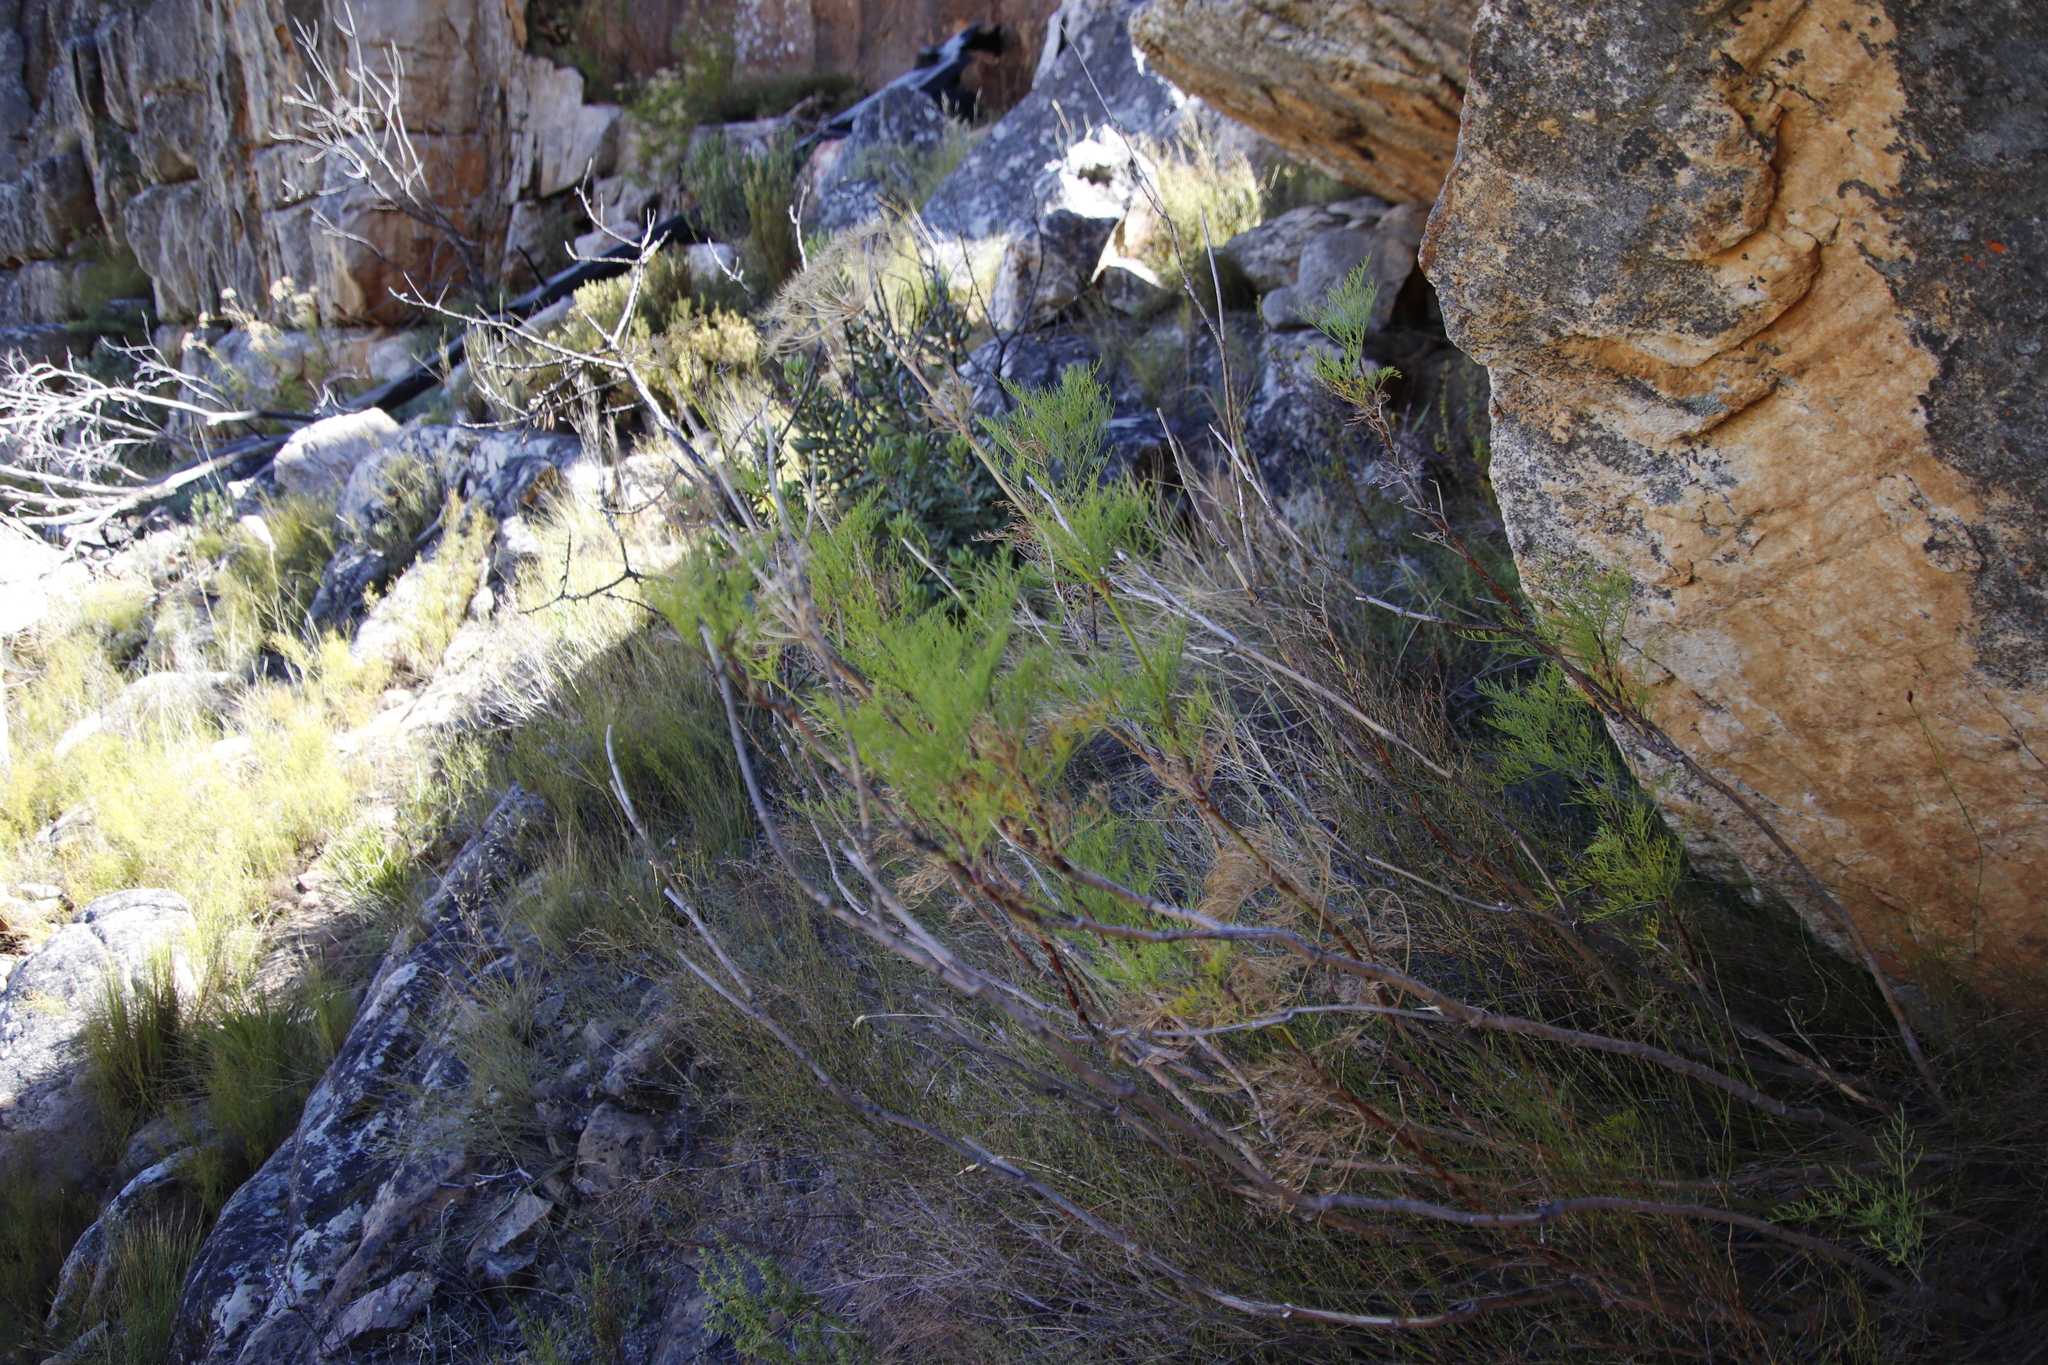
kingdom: Plantae
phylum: Tracheophyta
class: Magnoliopsida
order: Apiales
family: Apiaceae
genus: Notobubon
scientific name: Notobubon tenuifolium
